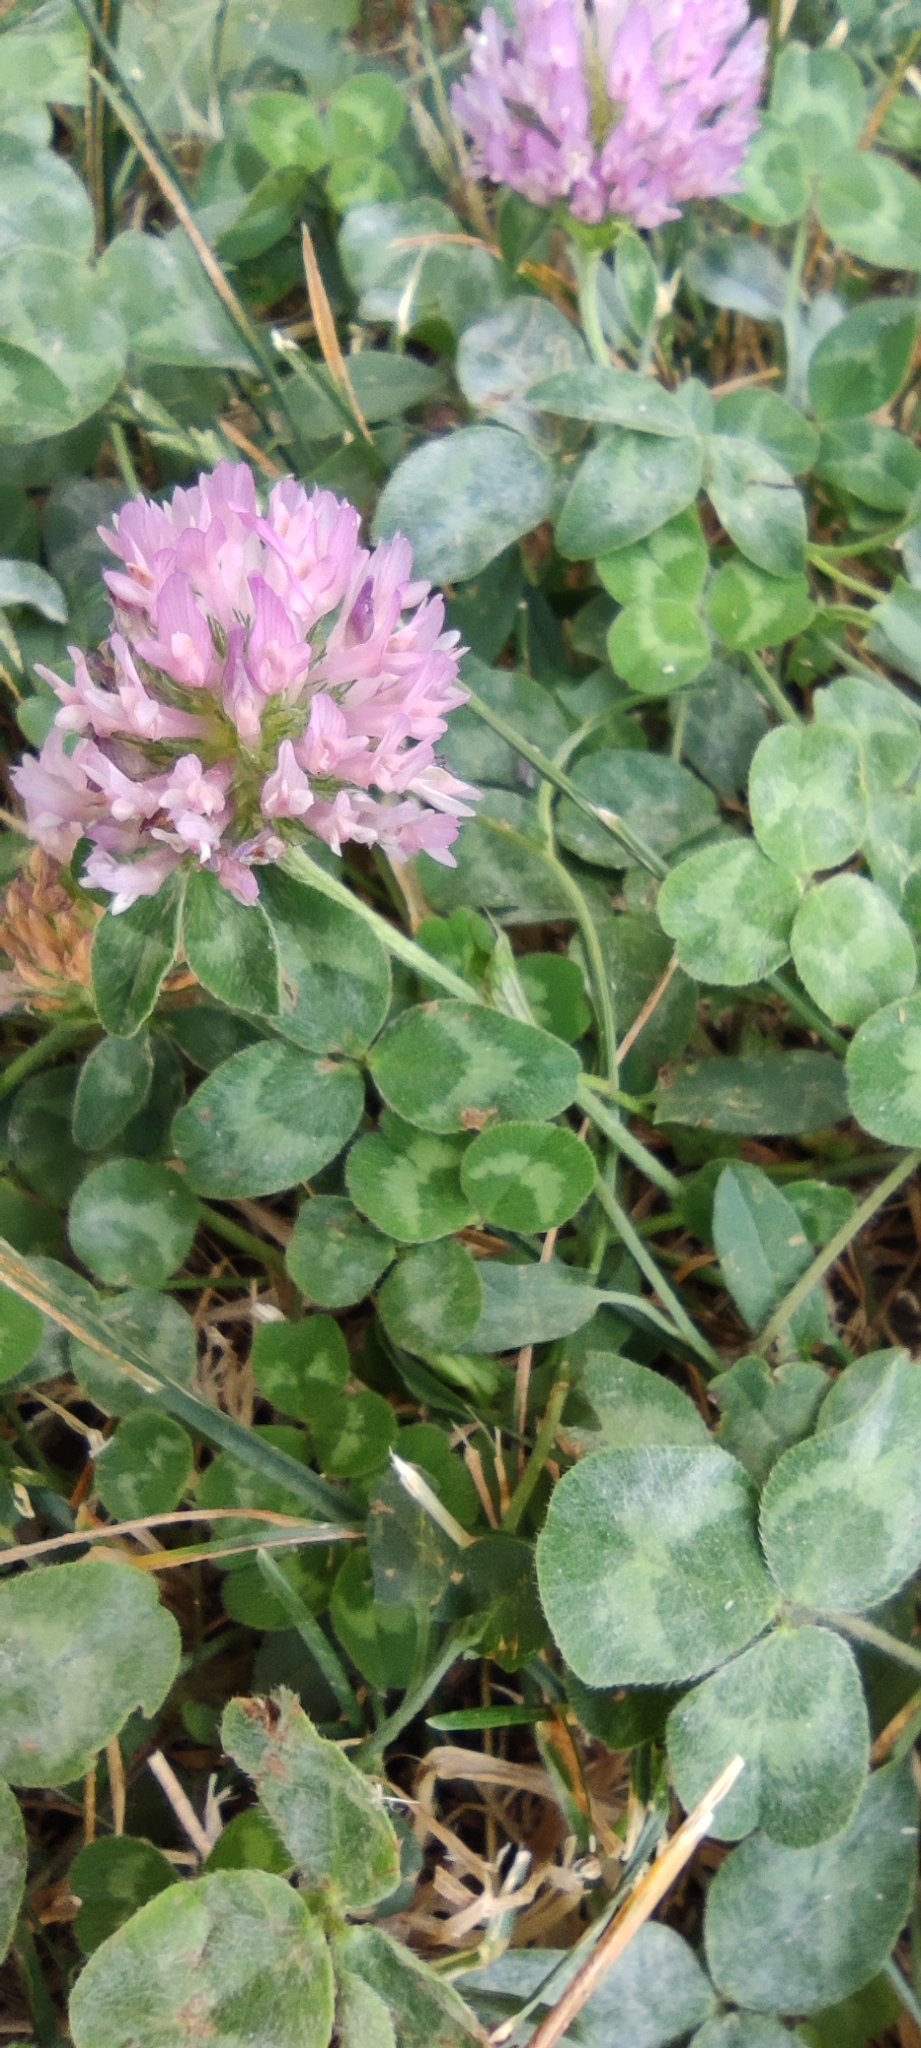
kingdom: Plantae
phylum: Tracheophyta
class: Magnoliopsida
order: Fabales
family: Fabaceae
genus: Trifolium
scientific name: Trifolium pratense
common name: Red clover
